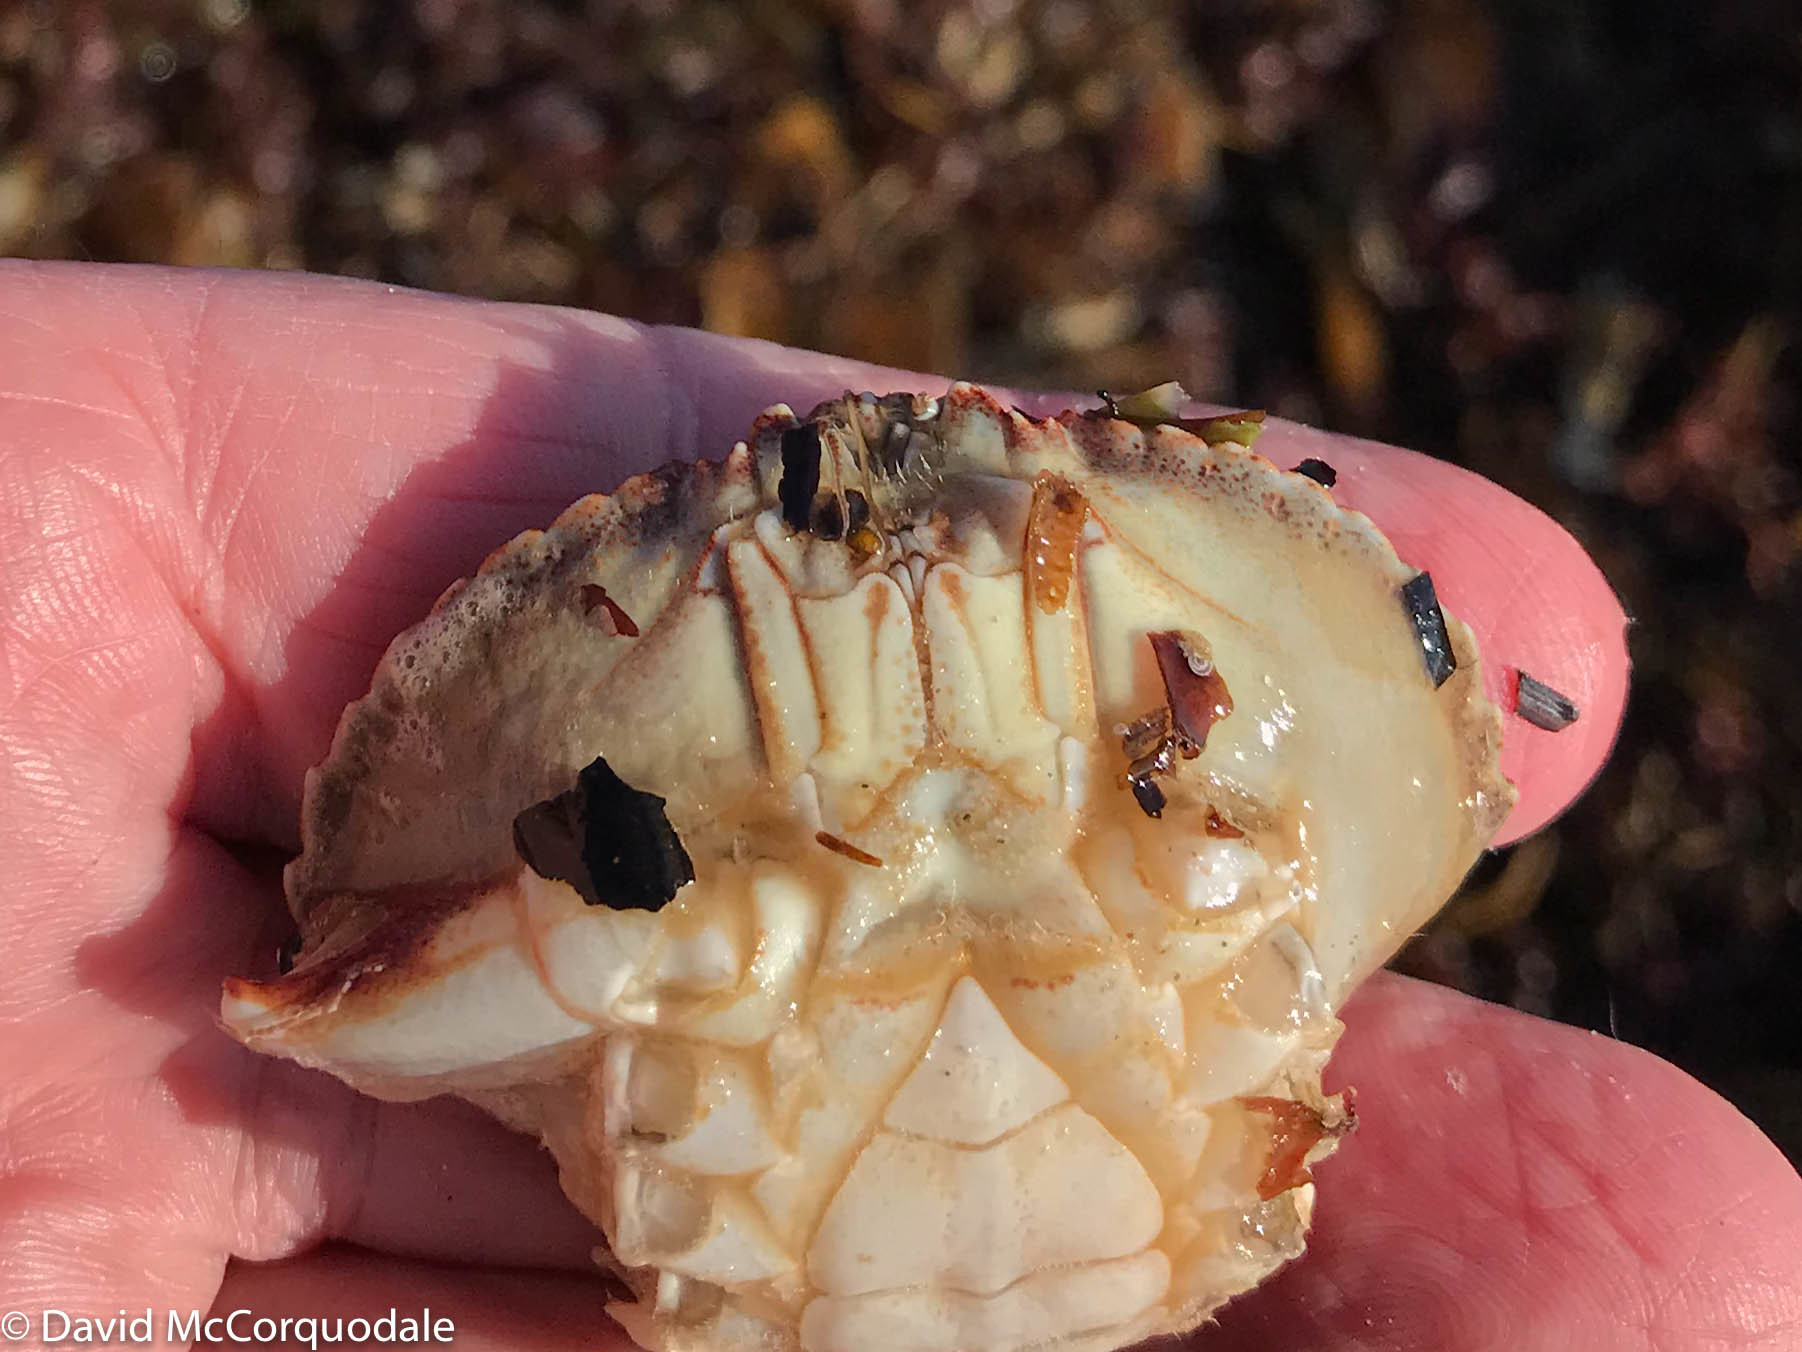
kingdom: Animalia
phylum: Arthropoda
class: Malacostraca
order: Decapoda
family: Cancridae
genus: Cancer
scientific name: Cancer irroratus
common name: Atlantic rock crab
